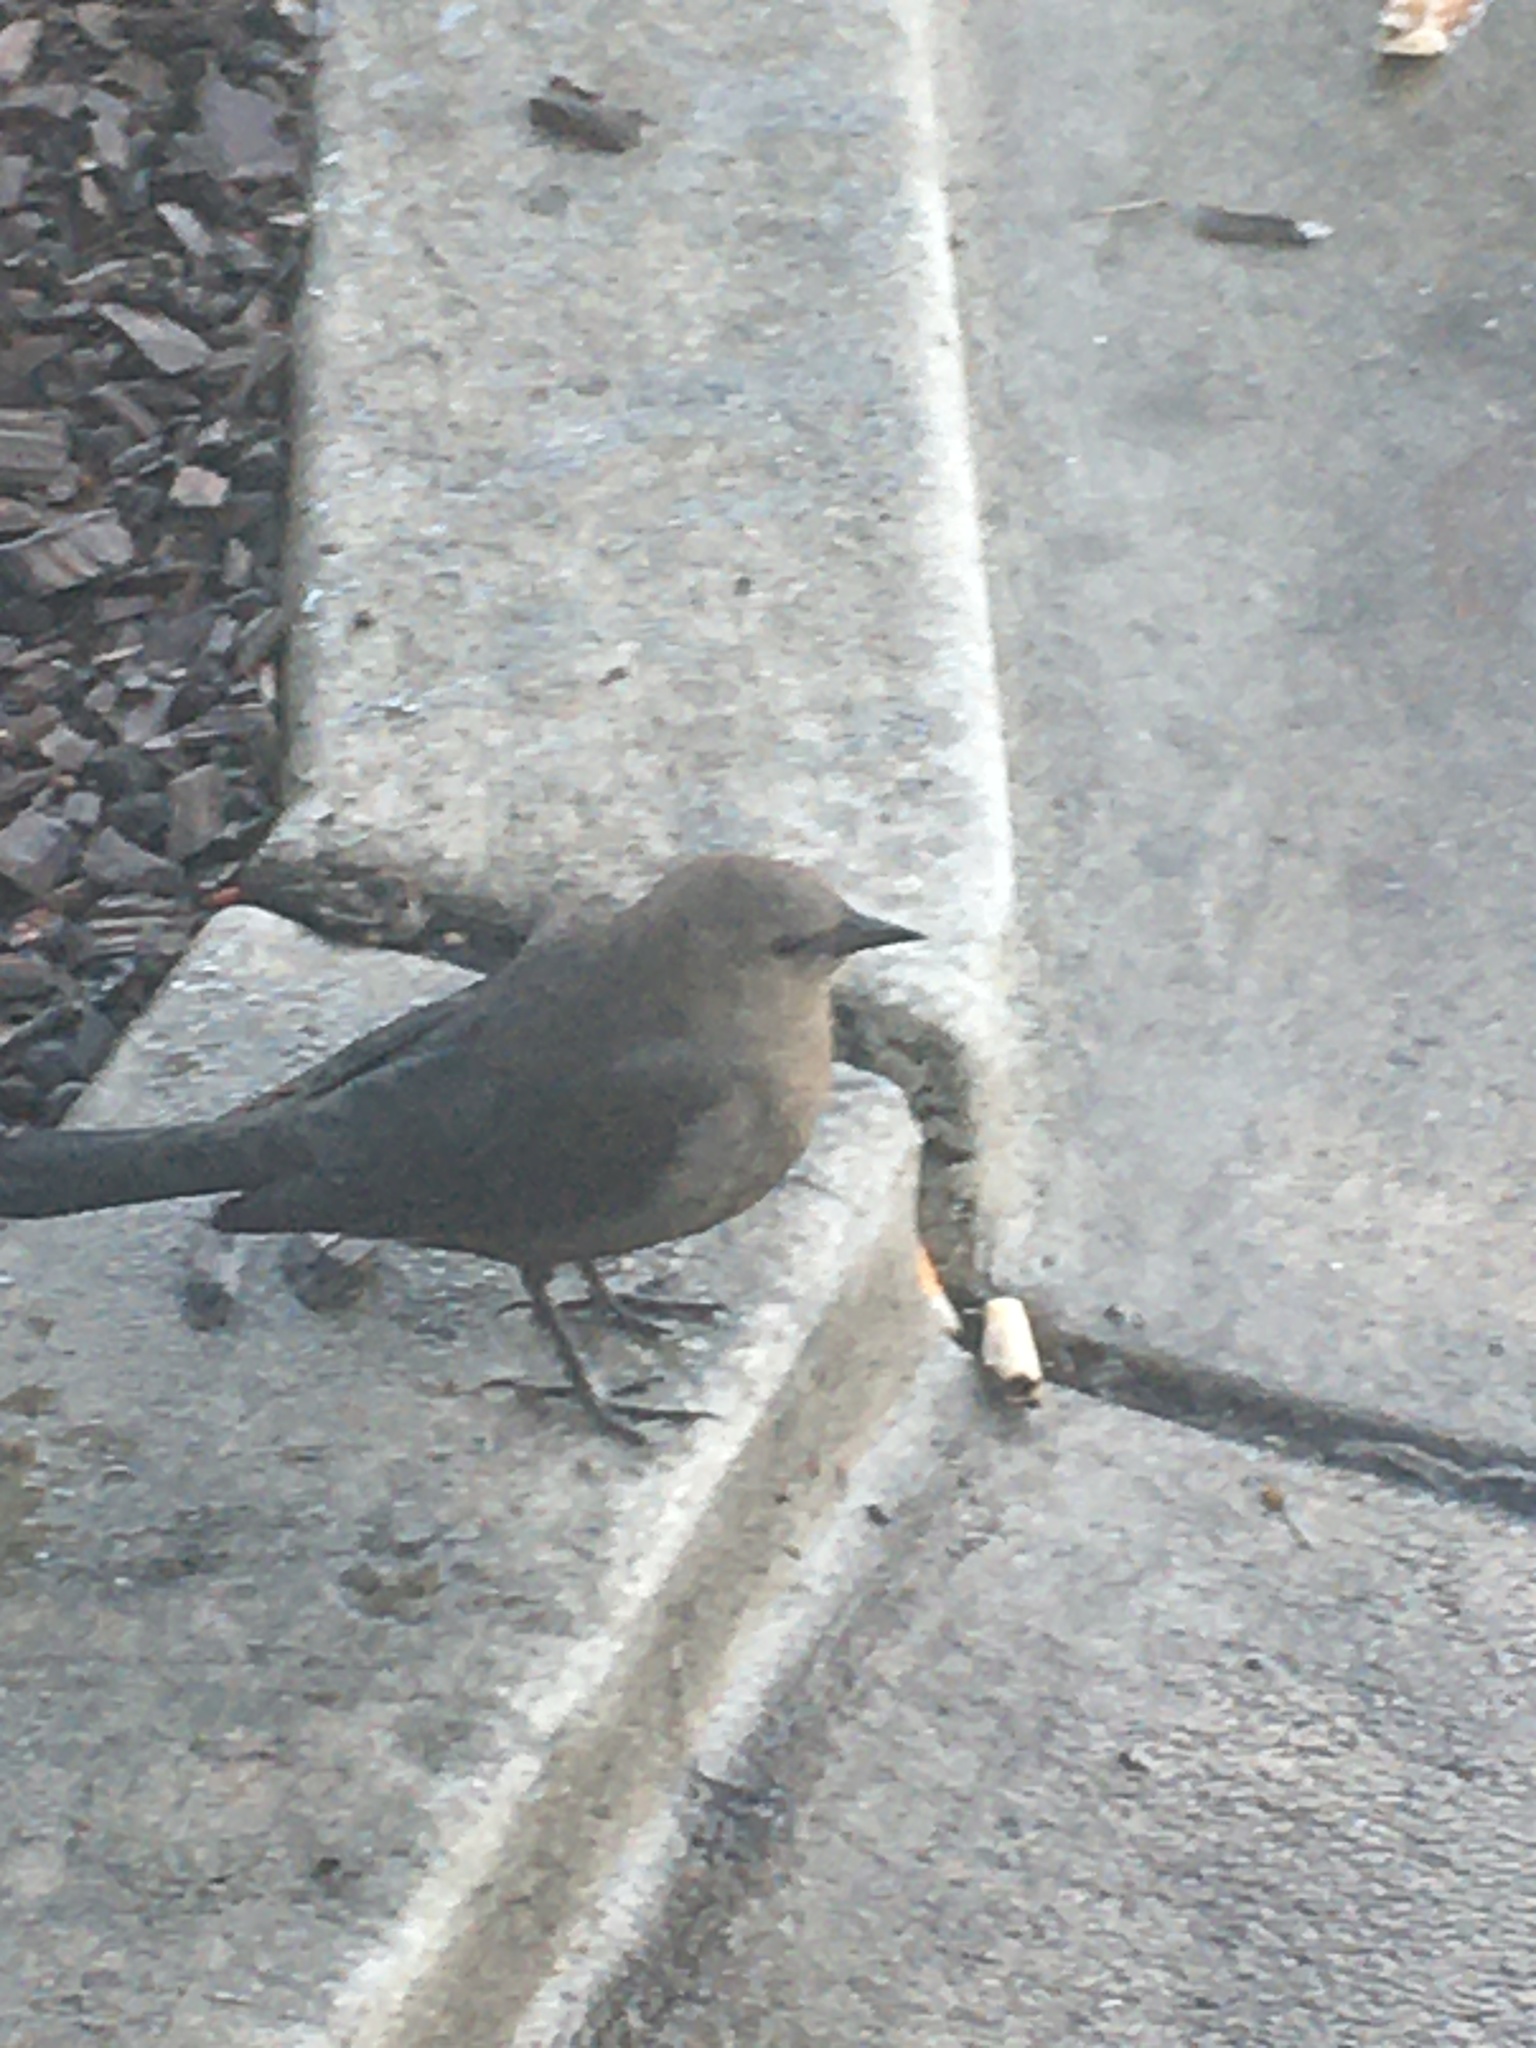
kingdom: Animalia
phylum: Chordata
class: Aves
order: Passeriformes
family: Icteridae
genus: Euphagus
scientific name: Euphagus cyanocephalus
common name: Brewer's blackbird
